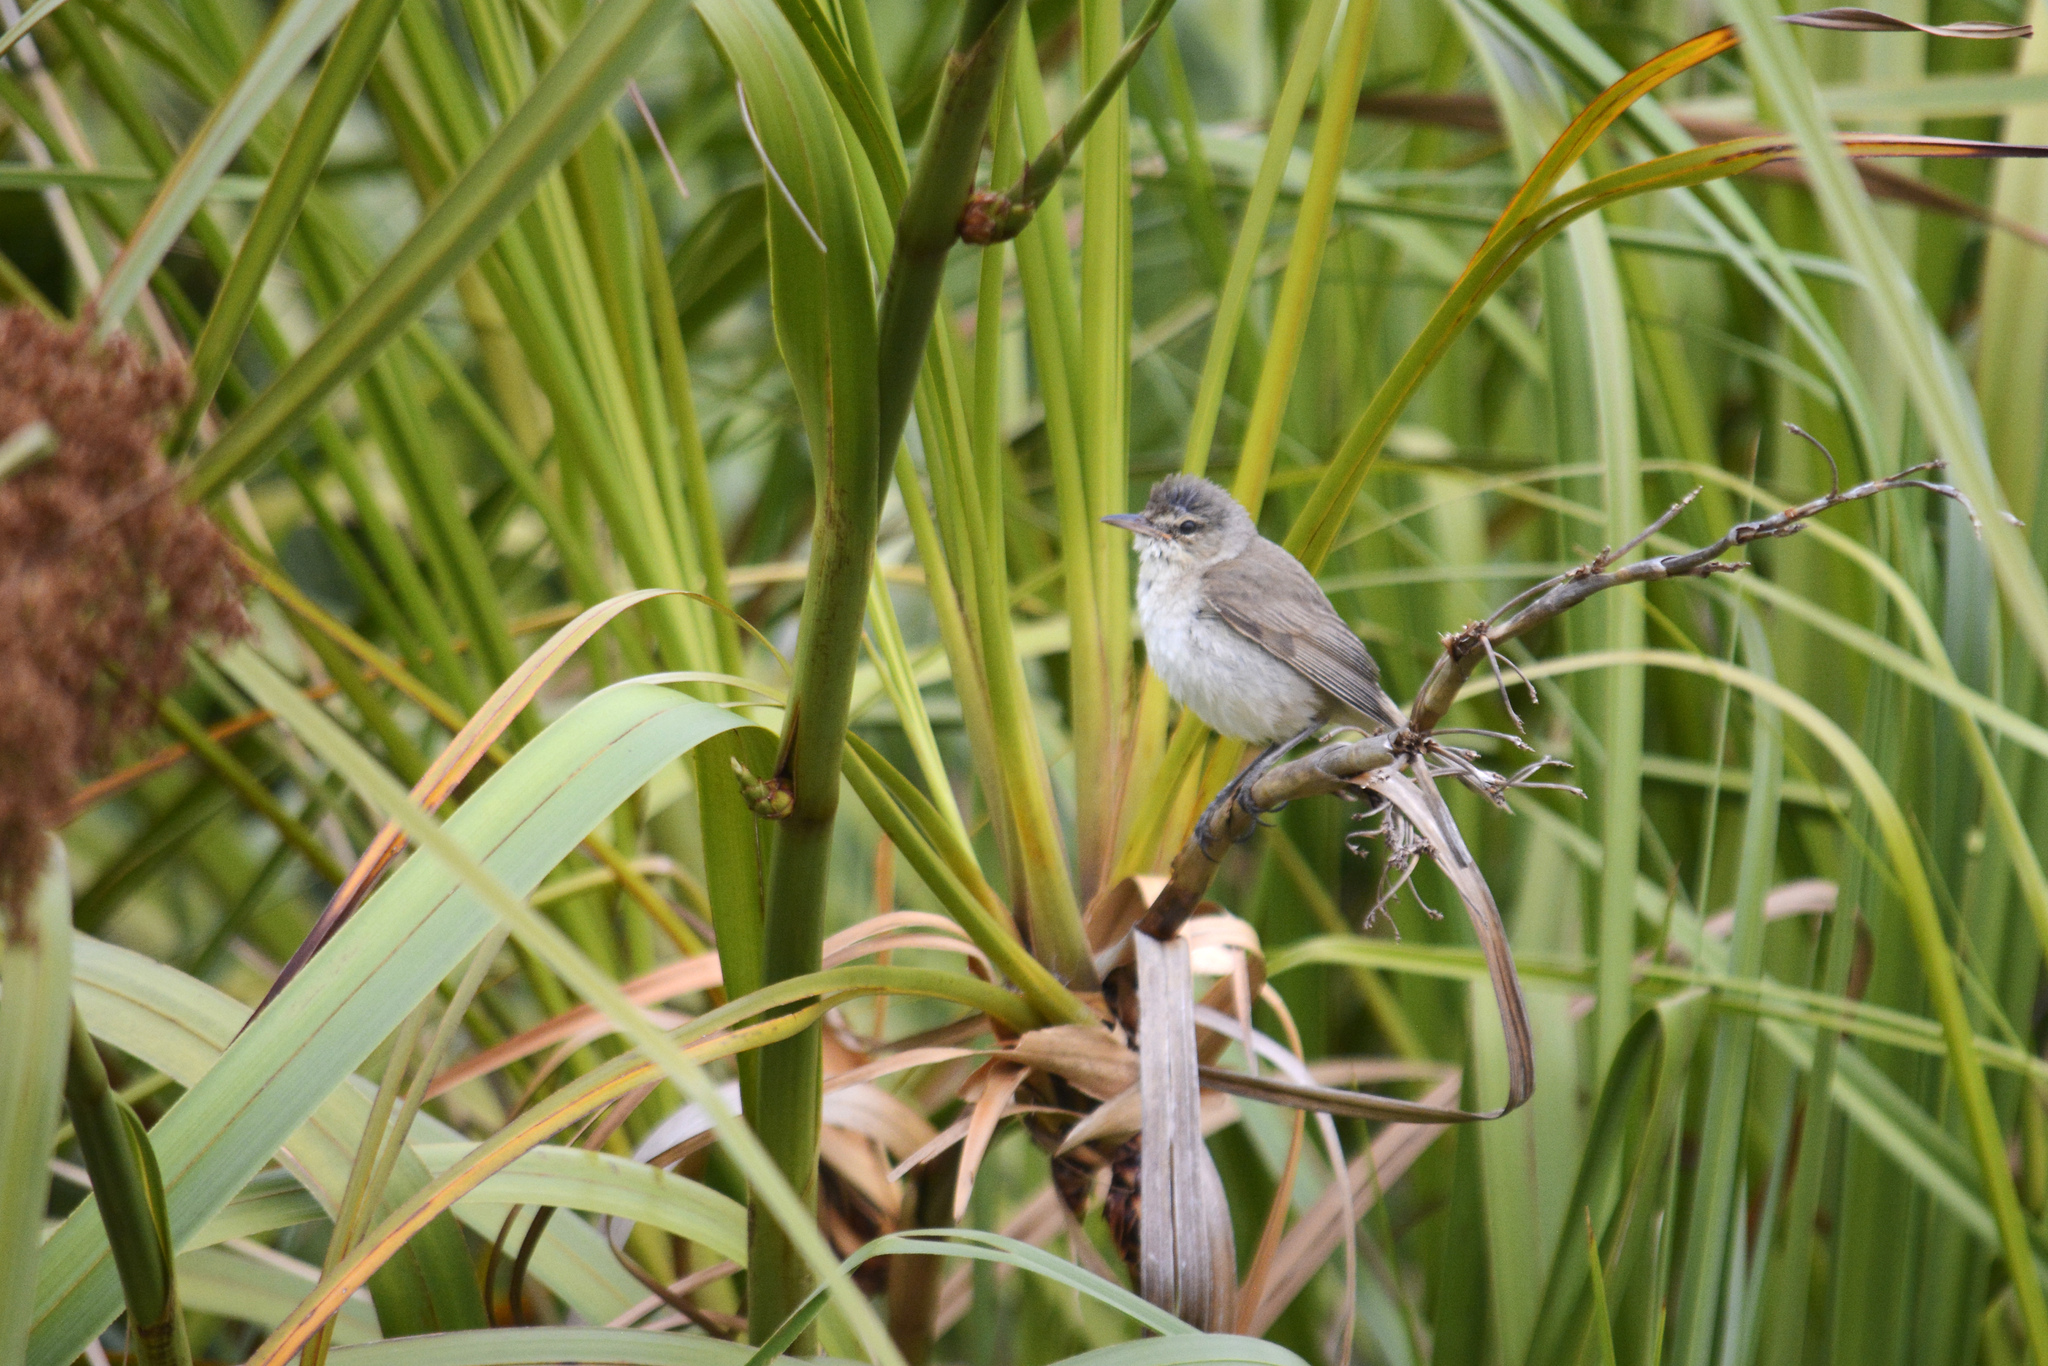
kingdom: Animalia
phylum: Chordata
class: Aves
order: Passeriformes
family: Acrocephalidae
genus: Acrocephalus
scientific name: Acrocephalus australis
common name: Australian reed warbler
